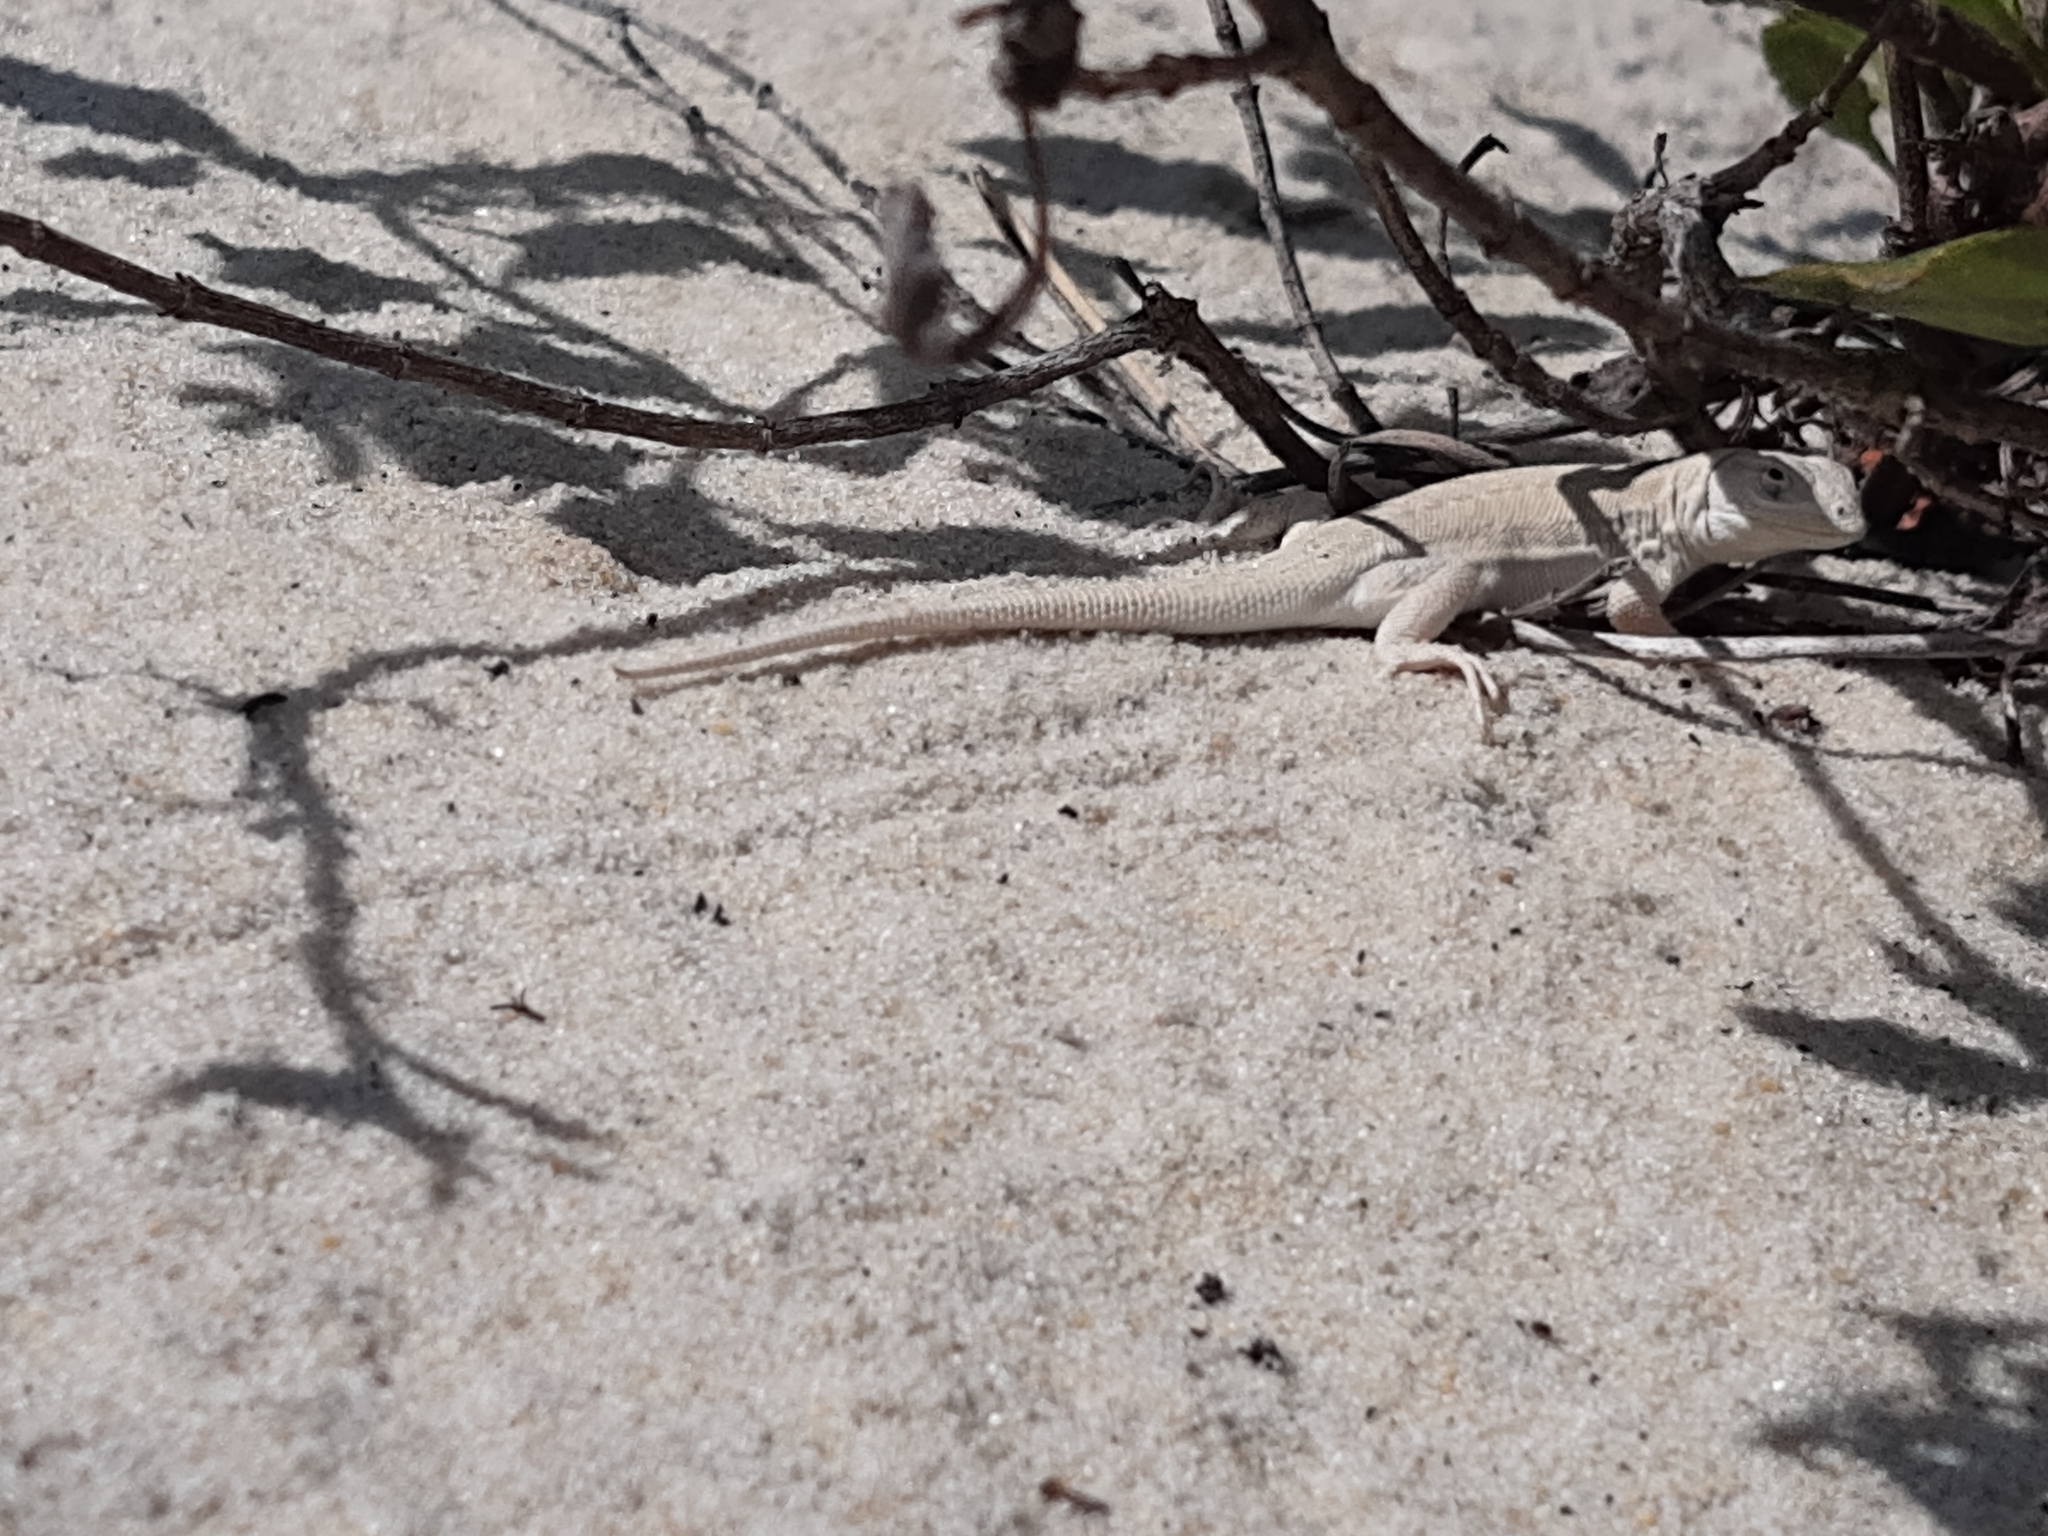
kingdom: Animalia
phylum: Chordata
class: Squamata
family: Liolaemidae
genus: Liolaemus
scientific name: Liolaemus occipitalis
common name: Skull tree iguana
